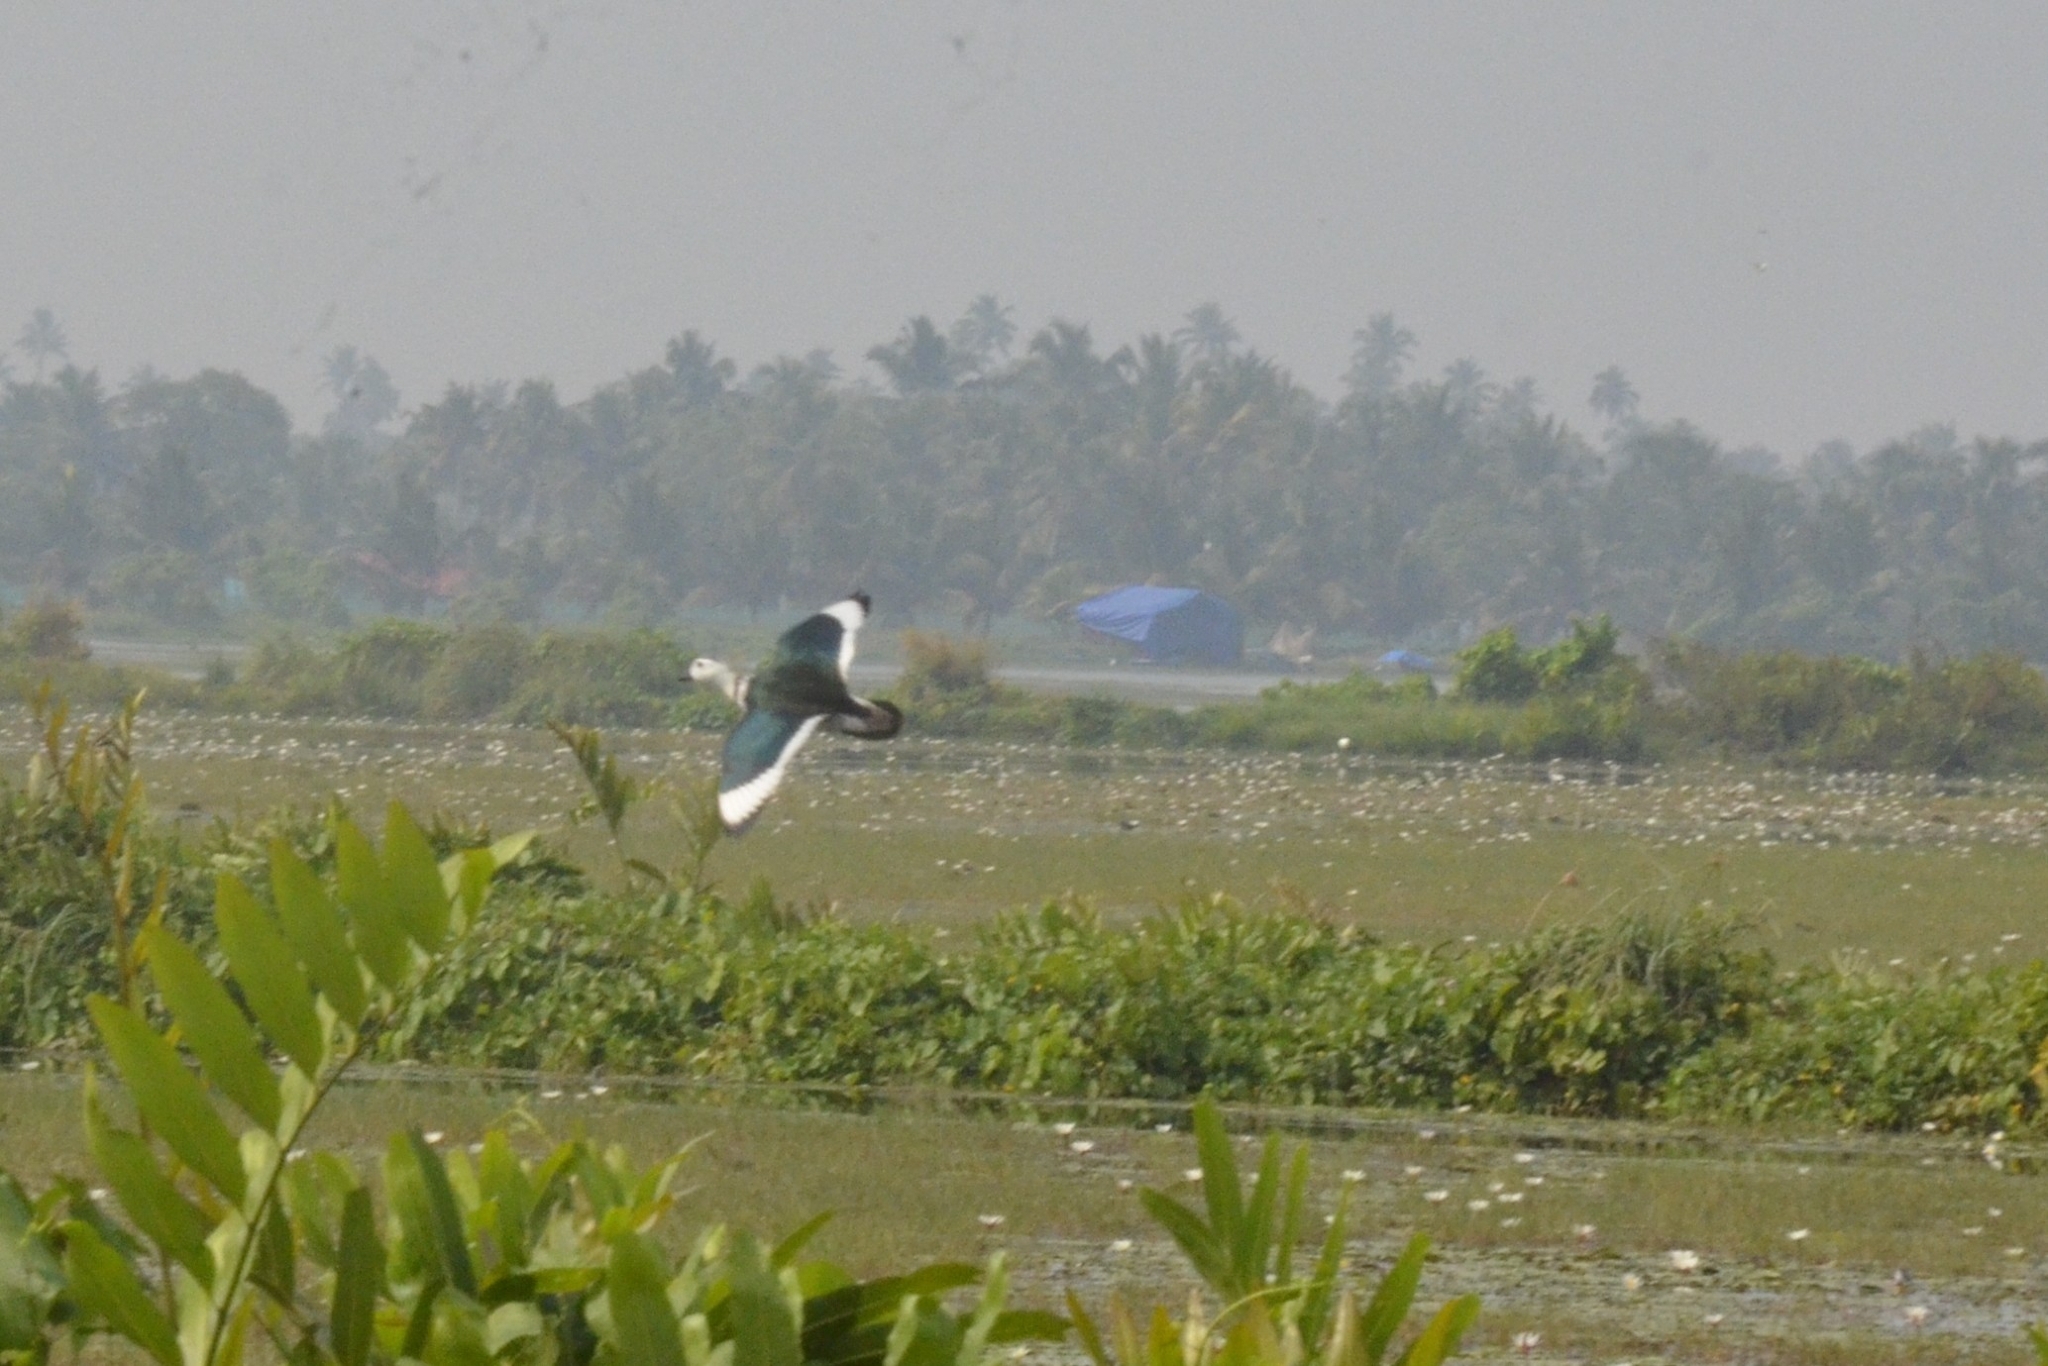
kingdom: Animalia
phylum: Chordata
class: Aves
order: Anseriformes
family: Anatidae
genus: Nettapus
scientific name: Nettapus coromandelianus
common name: Cotton pygmy-goose
